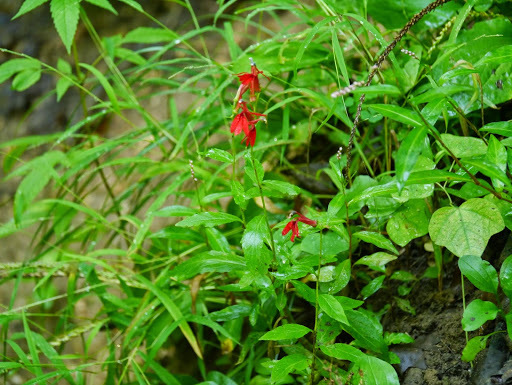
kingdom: Plantae
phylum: Tracheophyta
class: Magnoliopsida
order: Asterales
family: Campanulaceae
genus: Lobelia
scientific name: Lobelia cardinalis
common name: Cardinal flower
